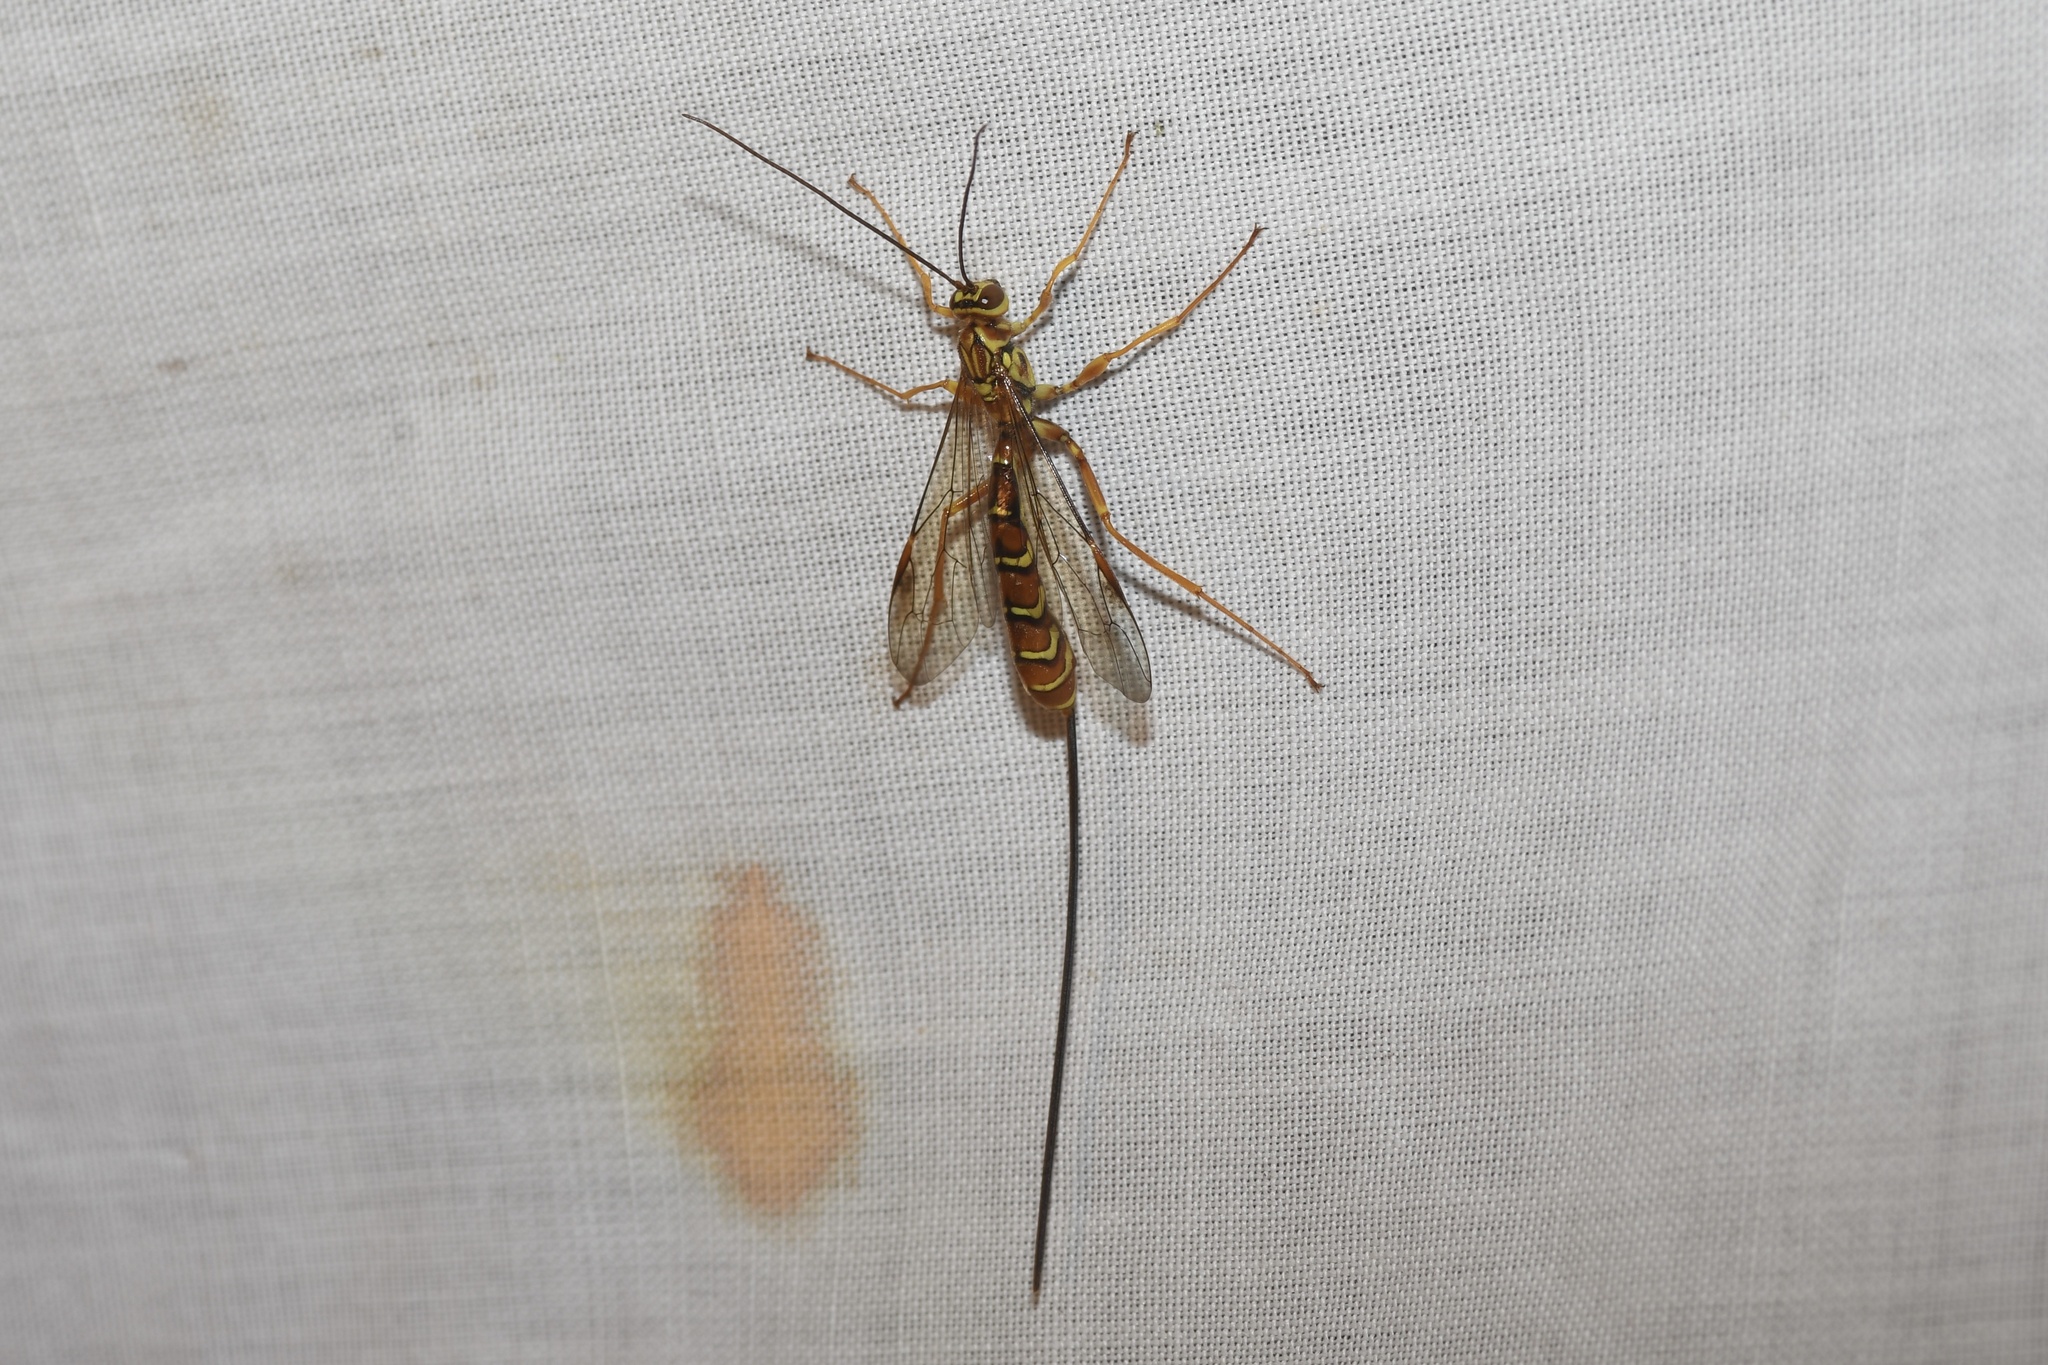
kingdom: Animalia
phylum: Arthropoda
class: Insecta
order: Hymenoptera
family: Ichneumonidae
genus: Megarhyssa
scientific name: Megarhyssa greenei
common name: Greene's giant ichneumonid wasp
